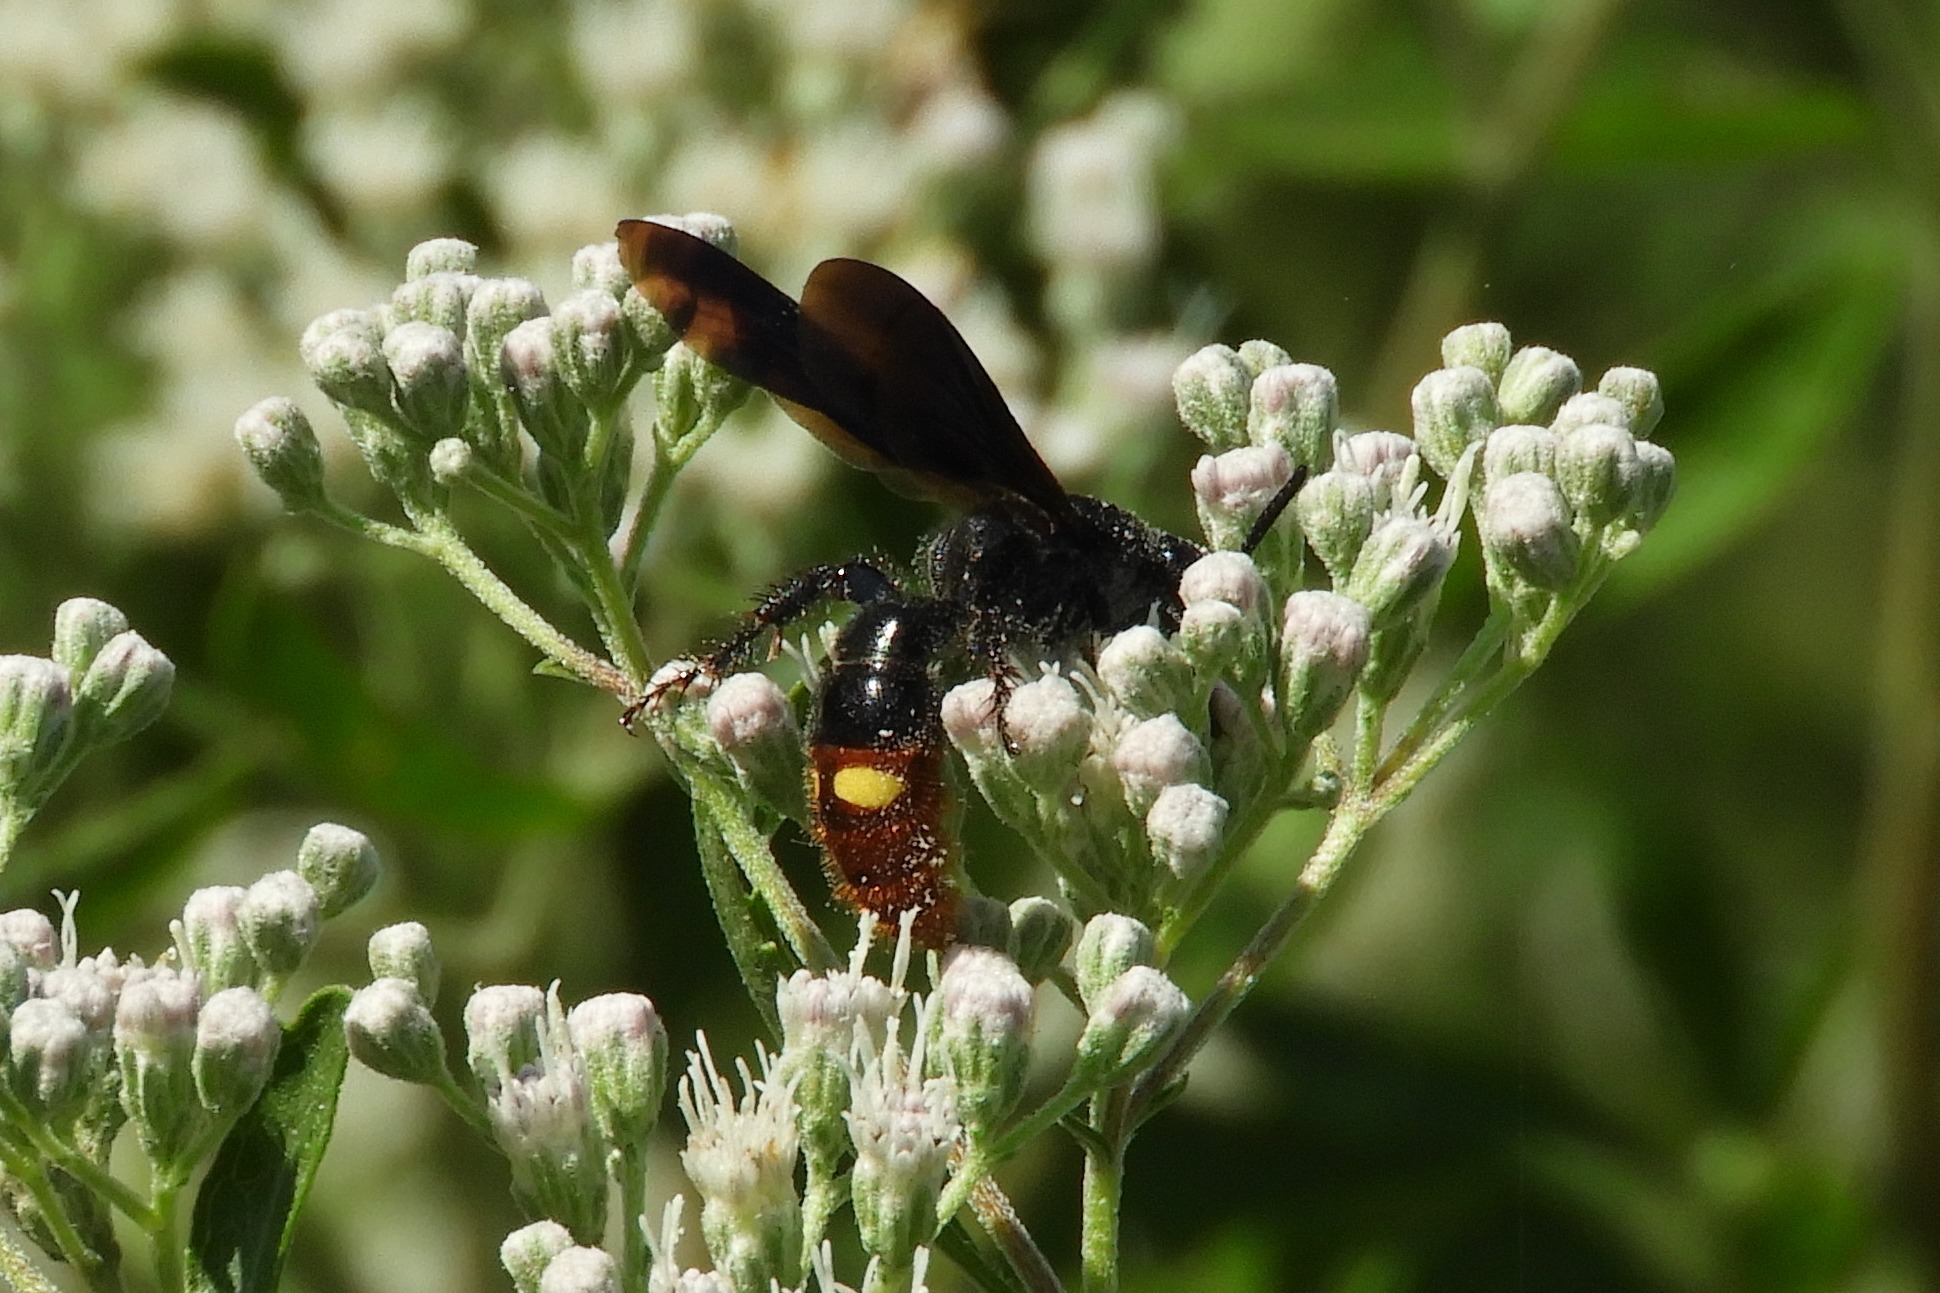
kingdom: Animalia
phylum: Arthropoda
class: Insecta
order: Hymenoptera
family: Scoliidae
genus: Scolia
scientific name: Scolia dubia
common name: Blue-winged scoliid wasp
